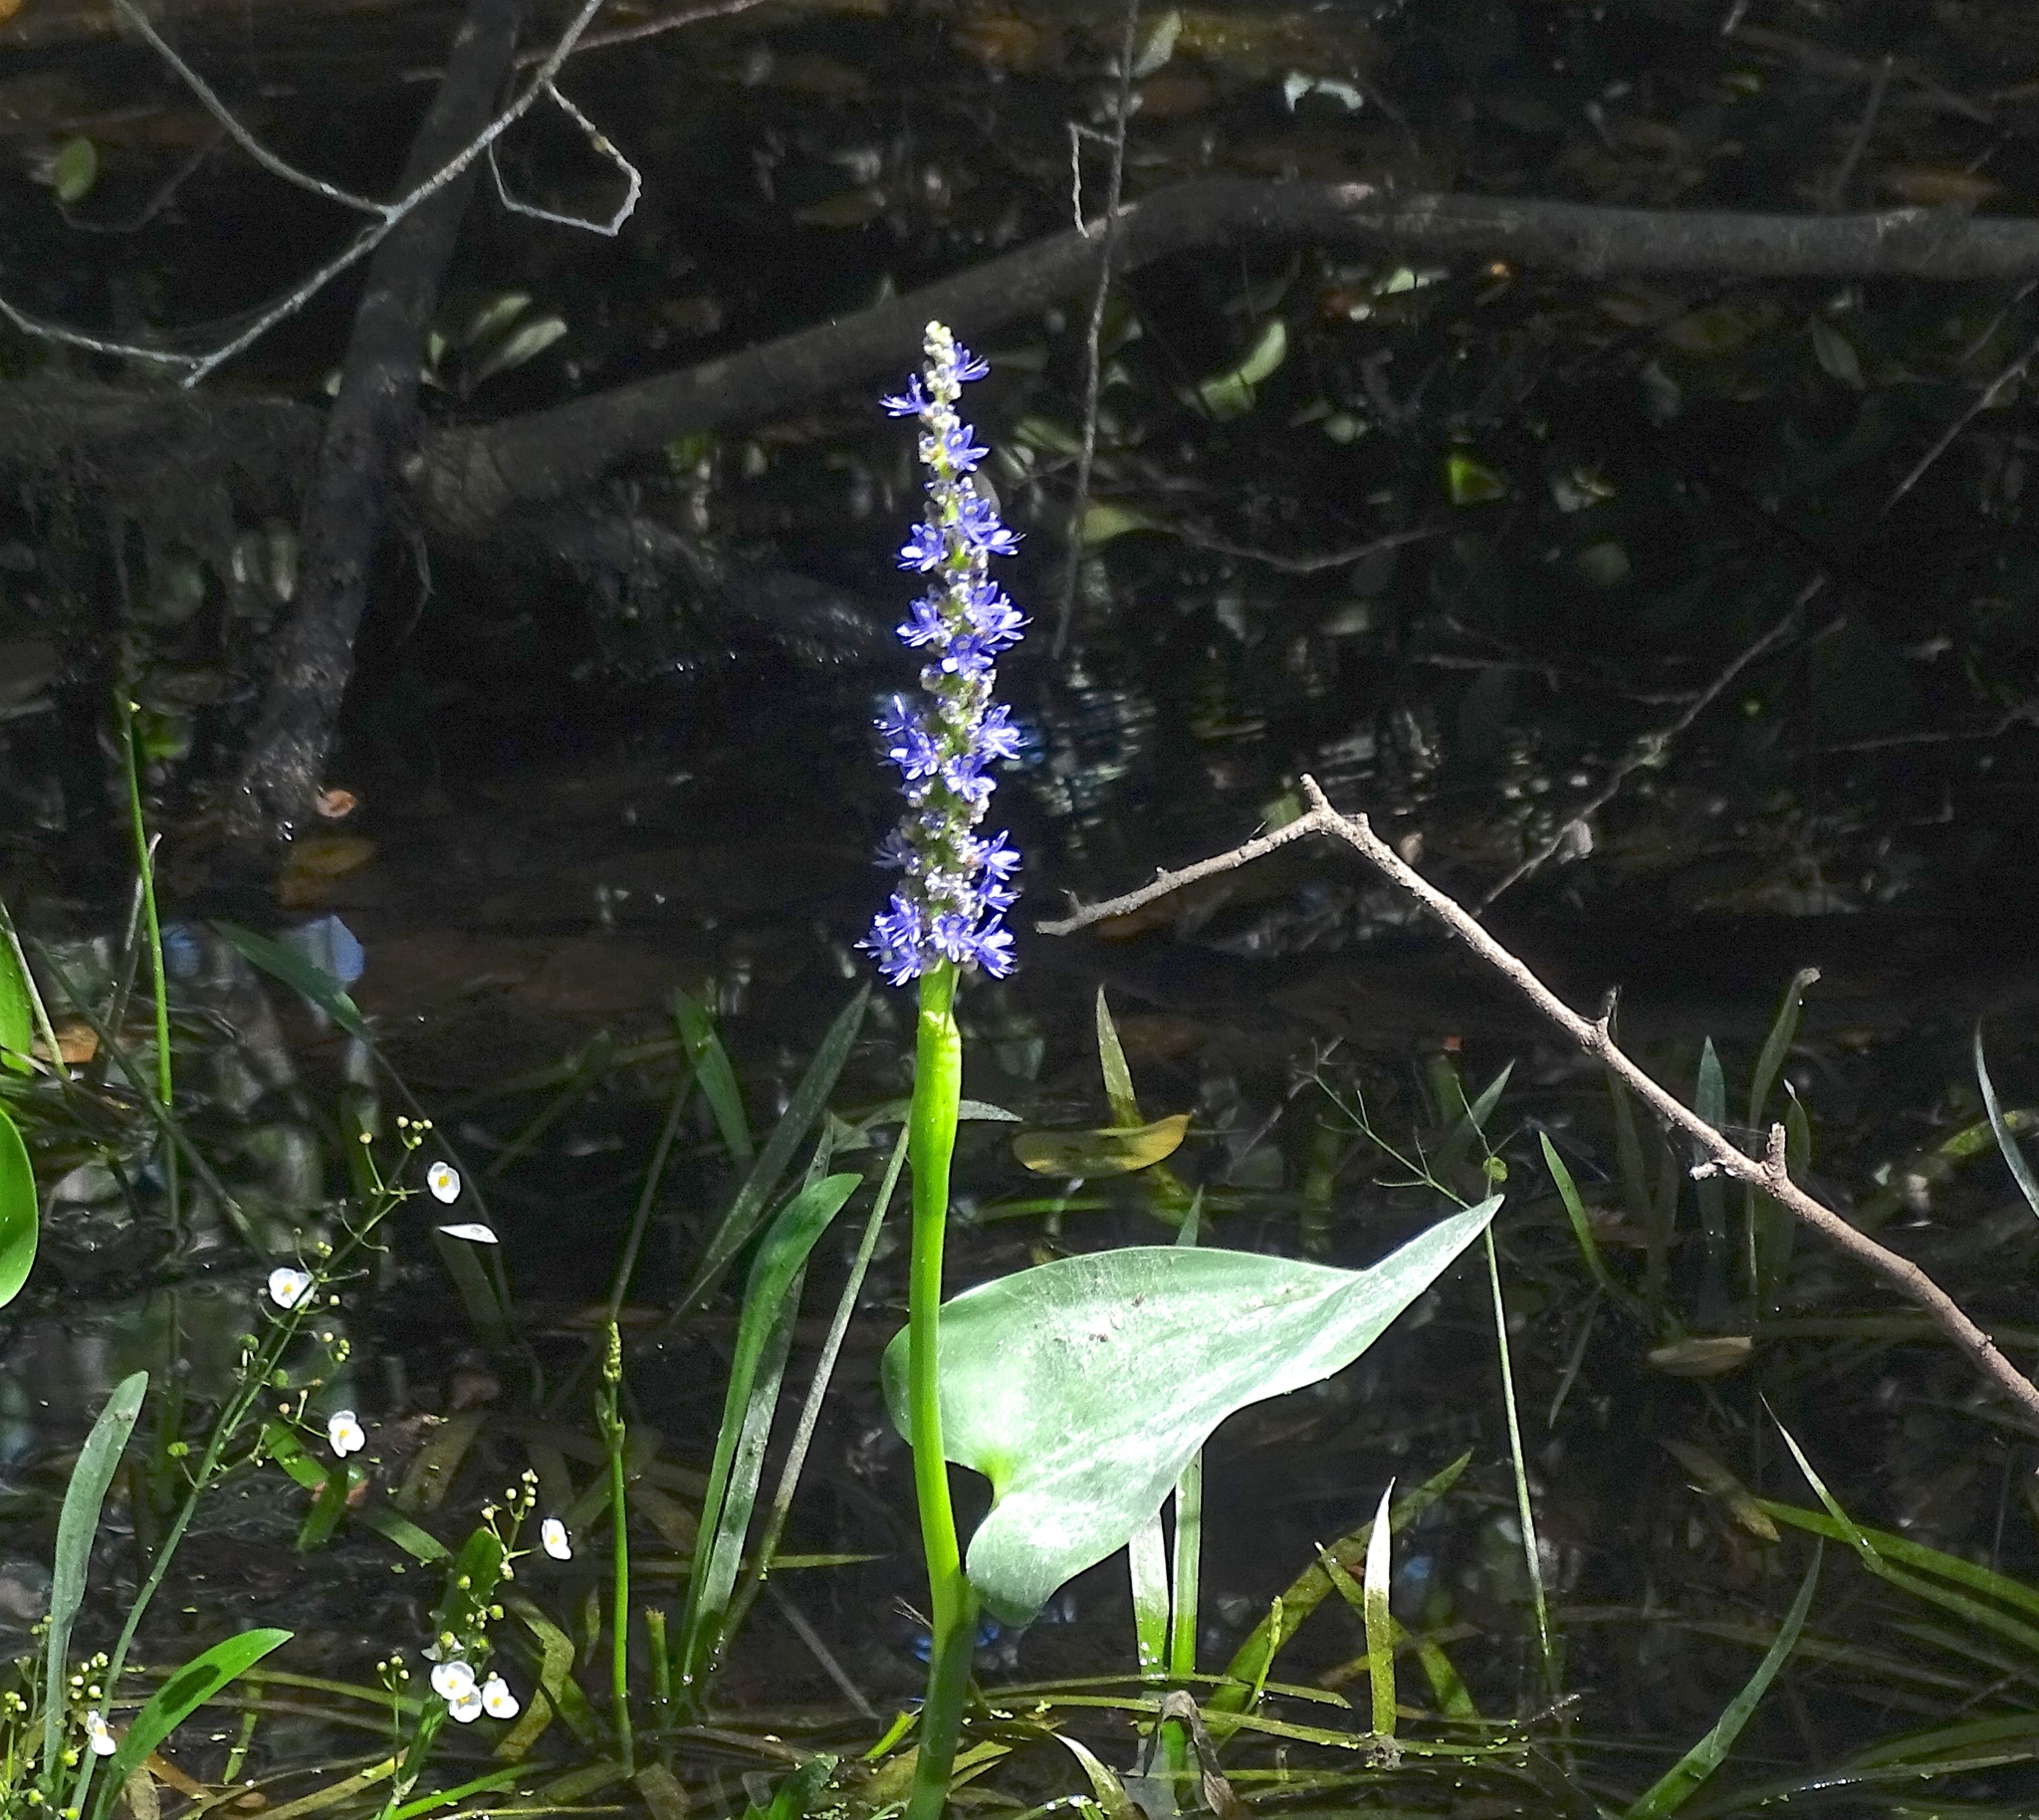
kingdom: Plantae
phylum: Tracheophyta
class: Liliopsida
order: Commelinales
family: Pontederiaceae
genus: Pontederia
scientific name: Pontederia cordata
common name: Pickerelweed
